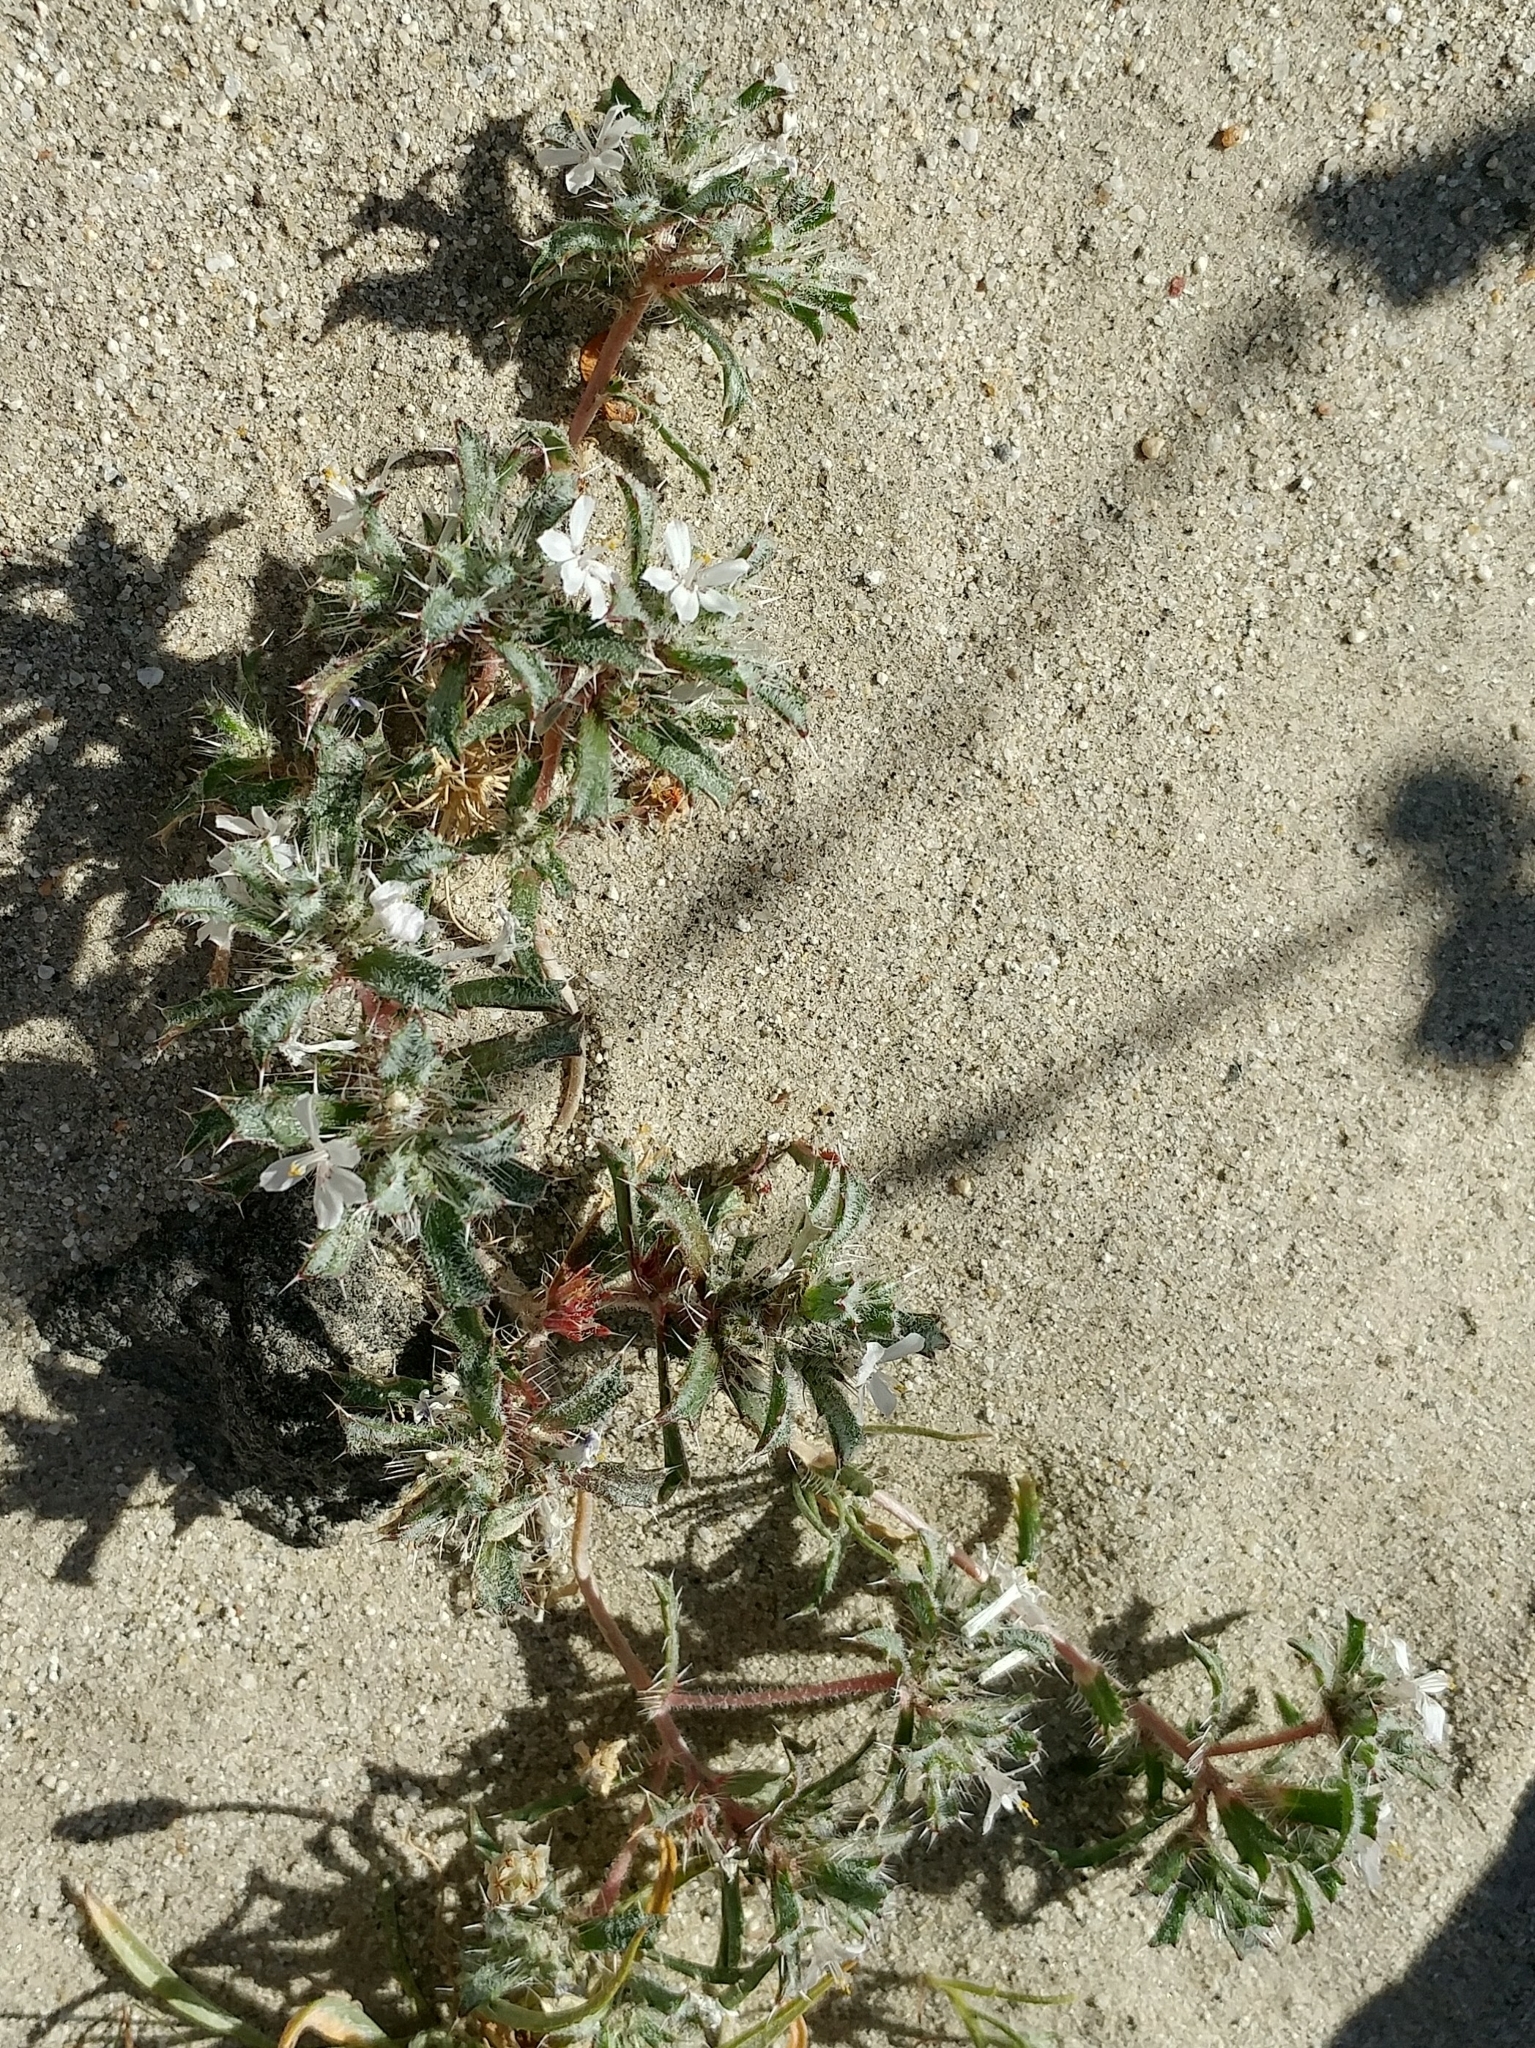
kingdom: Plantae
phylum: Tracheophyta
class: Magnoliopsida
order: Ericales
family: Polemoniaceae
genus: Loeseliastrum
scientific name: Loeseliastrum schottii
